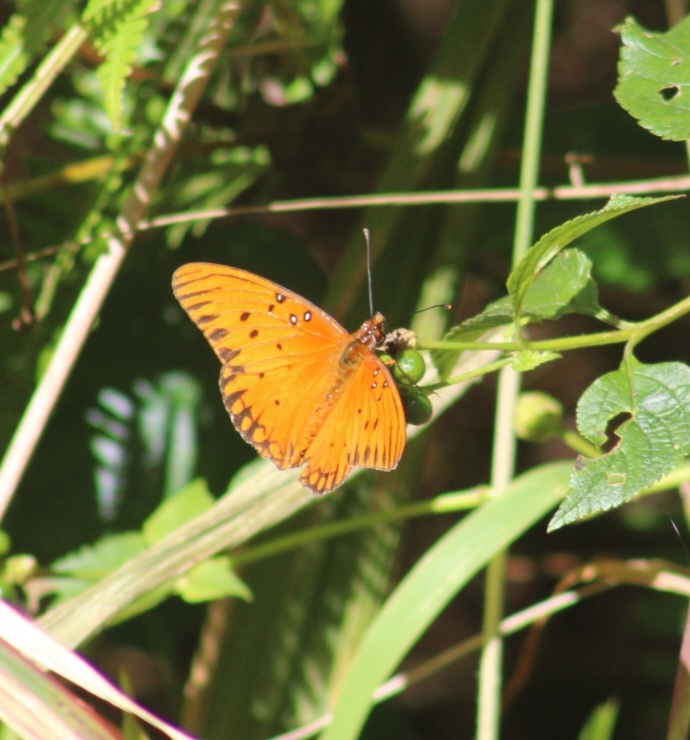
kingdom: Animalia
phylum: Arthropoda
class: Insecta
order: Lepidoptera
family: Nymphalidae
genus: Dione
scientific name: Dione vanillae
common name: Gulf fritillary
